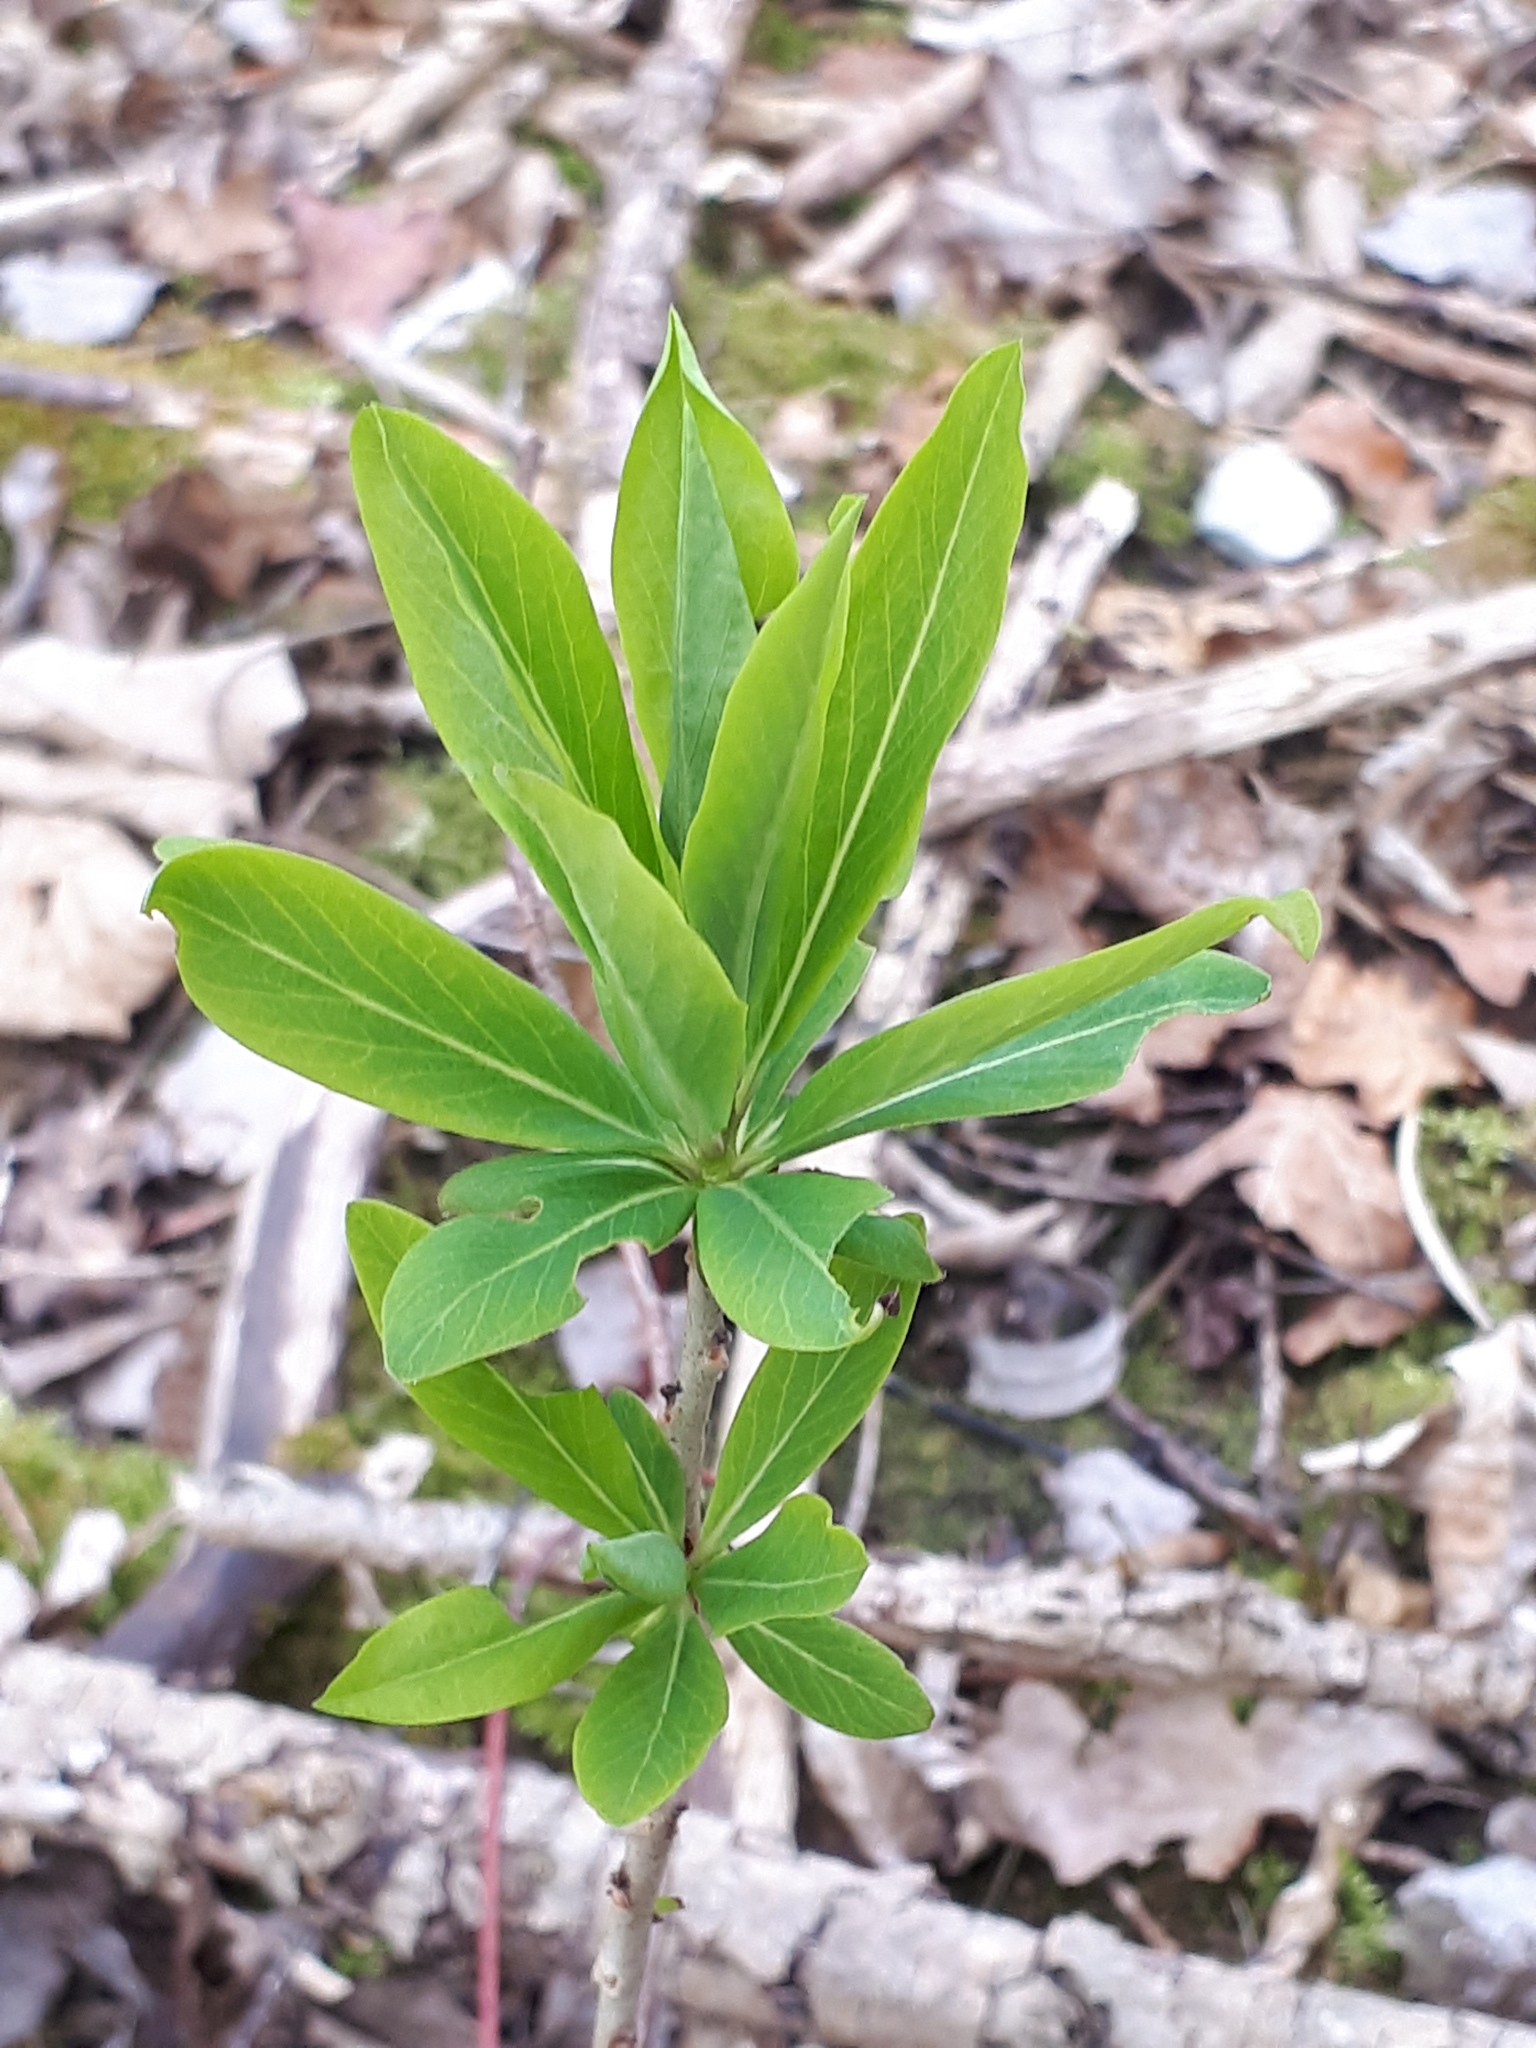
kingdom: Plantae
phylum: Tracheophyta
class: Magnoliopsida
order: Malvales
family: Thymelaeaceae
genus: Daphne
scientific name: Daphne mezereum
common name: Mezereon
